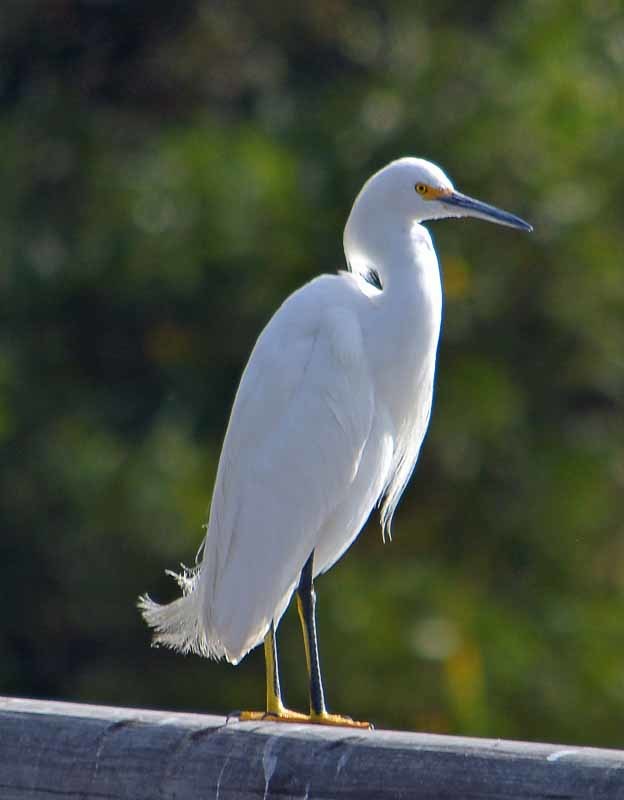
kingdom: Animalia
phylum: Chordata
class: Aves
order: Pelecaniformes
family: Ardeidae
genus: Egretta
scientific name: Egretta thula
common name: Snowy egret
